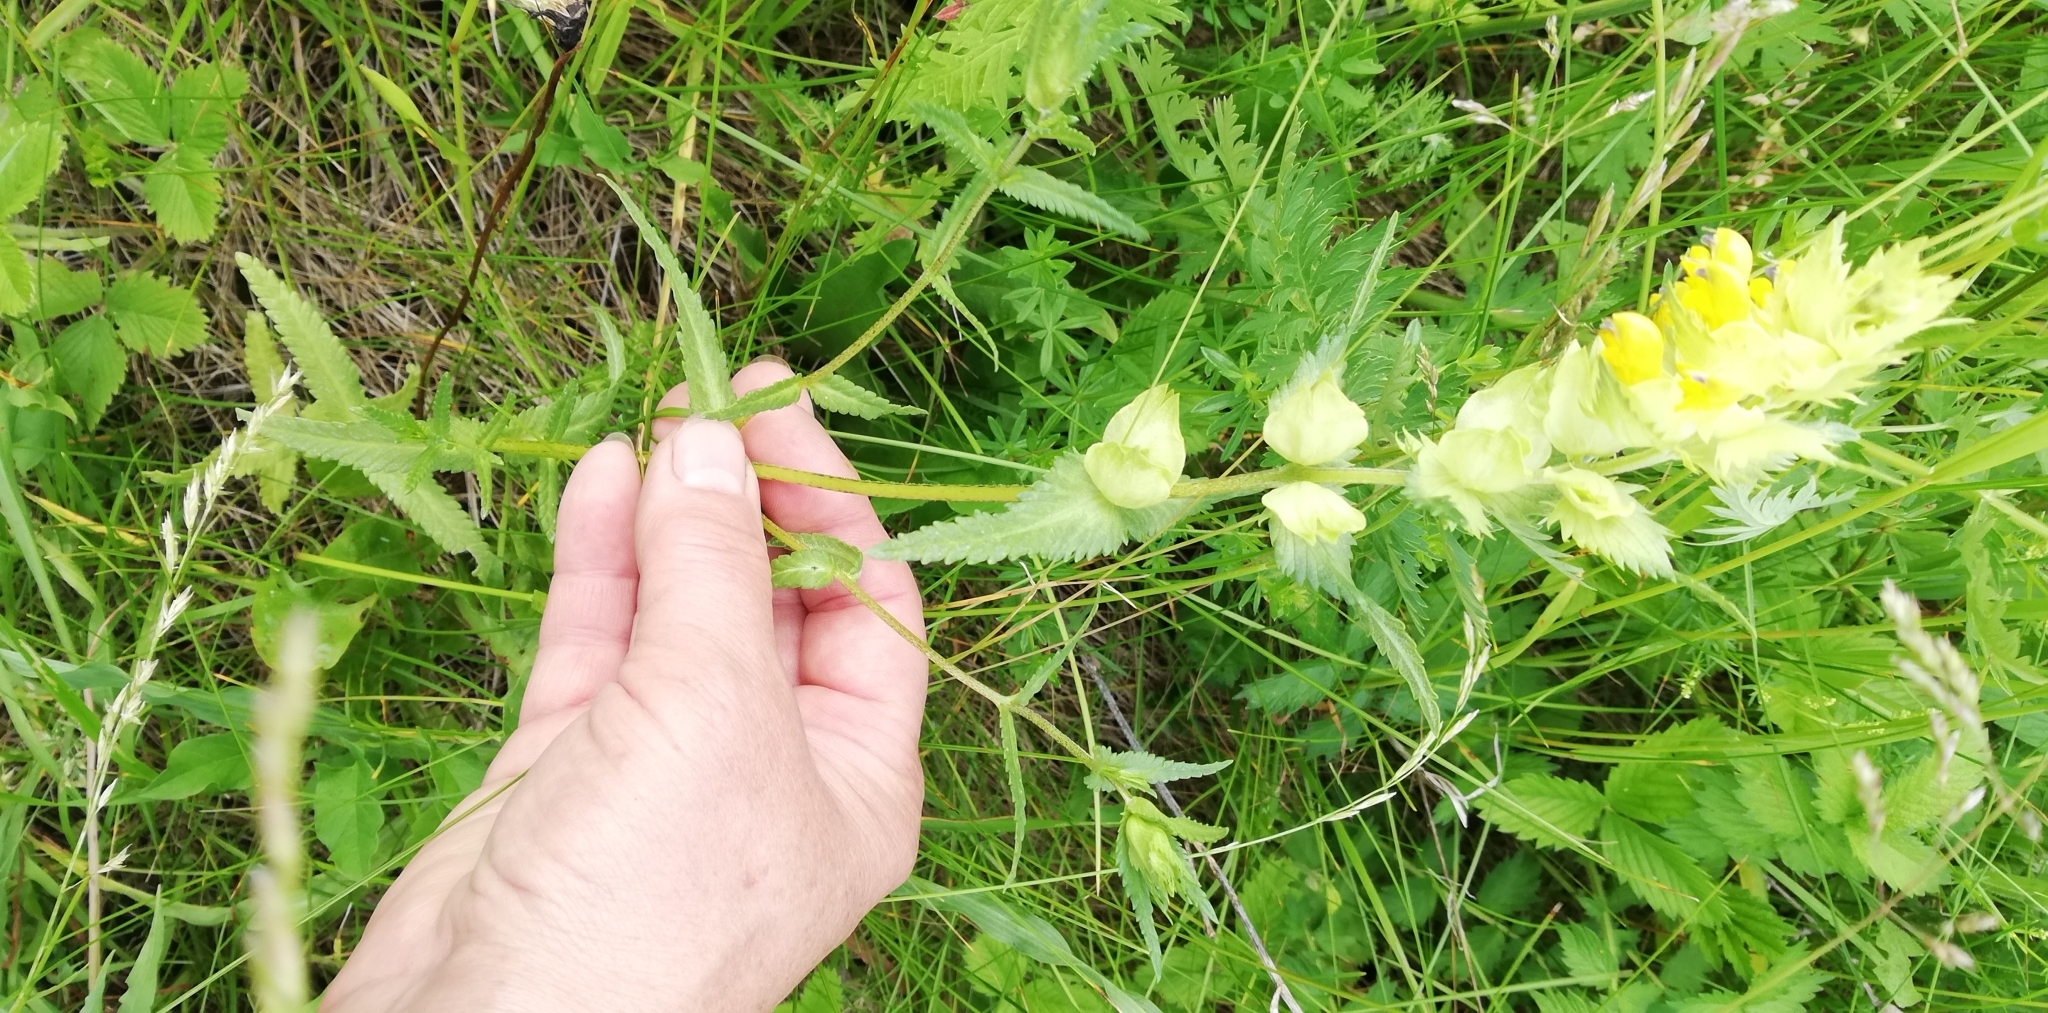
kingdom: Plantae
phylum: Tracheophyta
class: Magnoliopsida
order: Lamiales
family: Orobanchaceae
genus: Rhinanthus
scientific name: Rhinanthus serotinus
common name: Late-flowering yellow rattle
